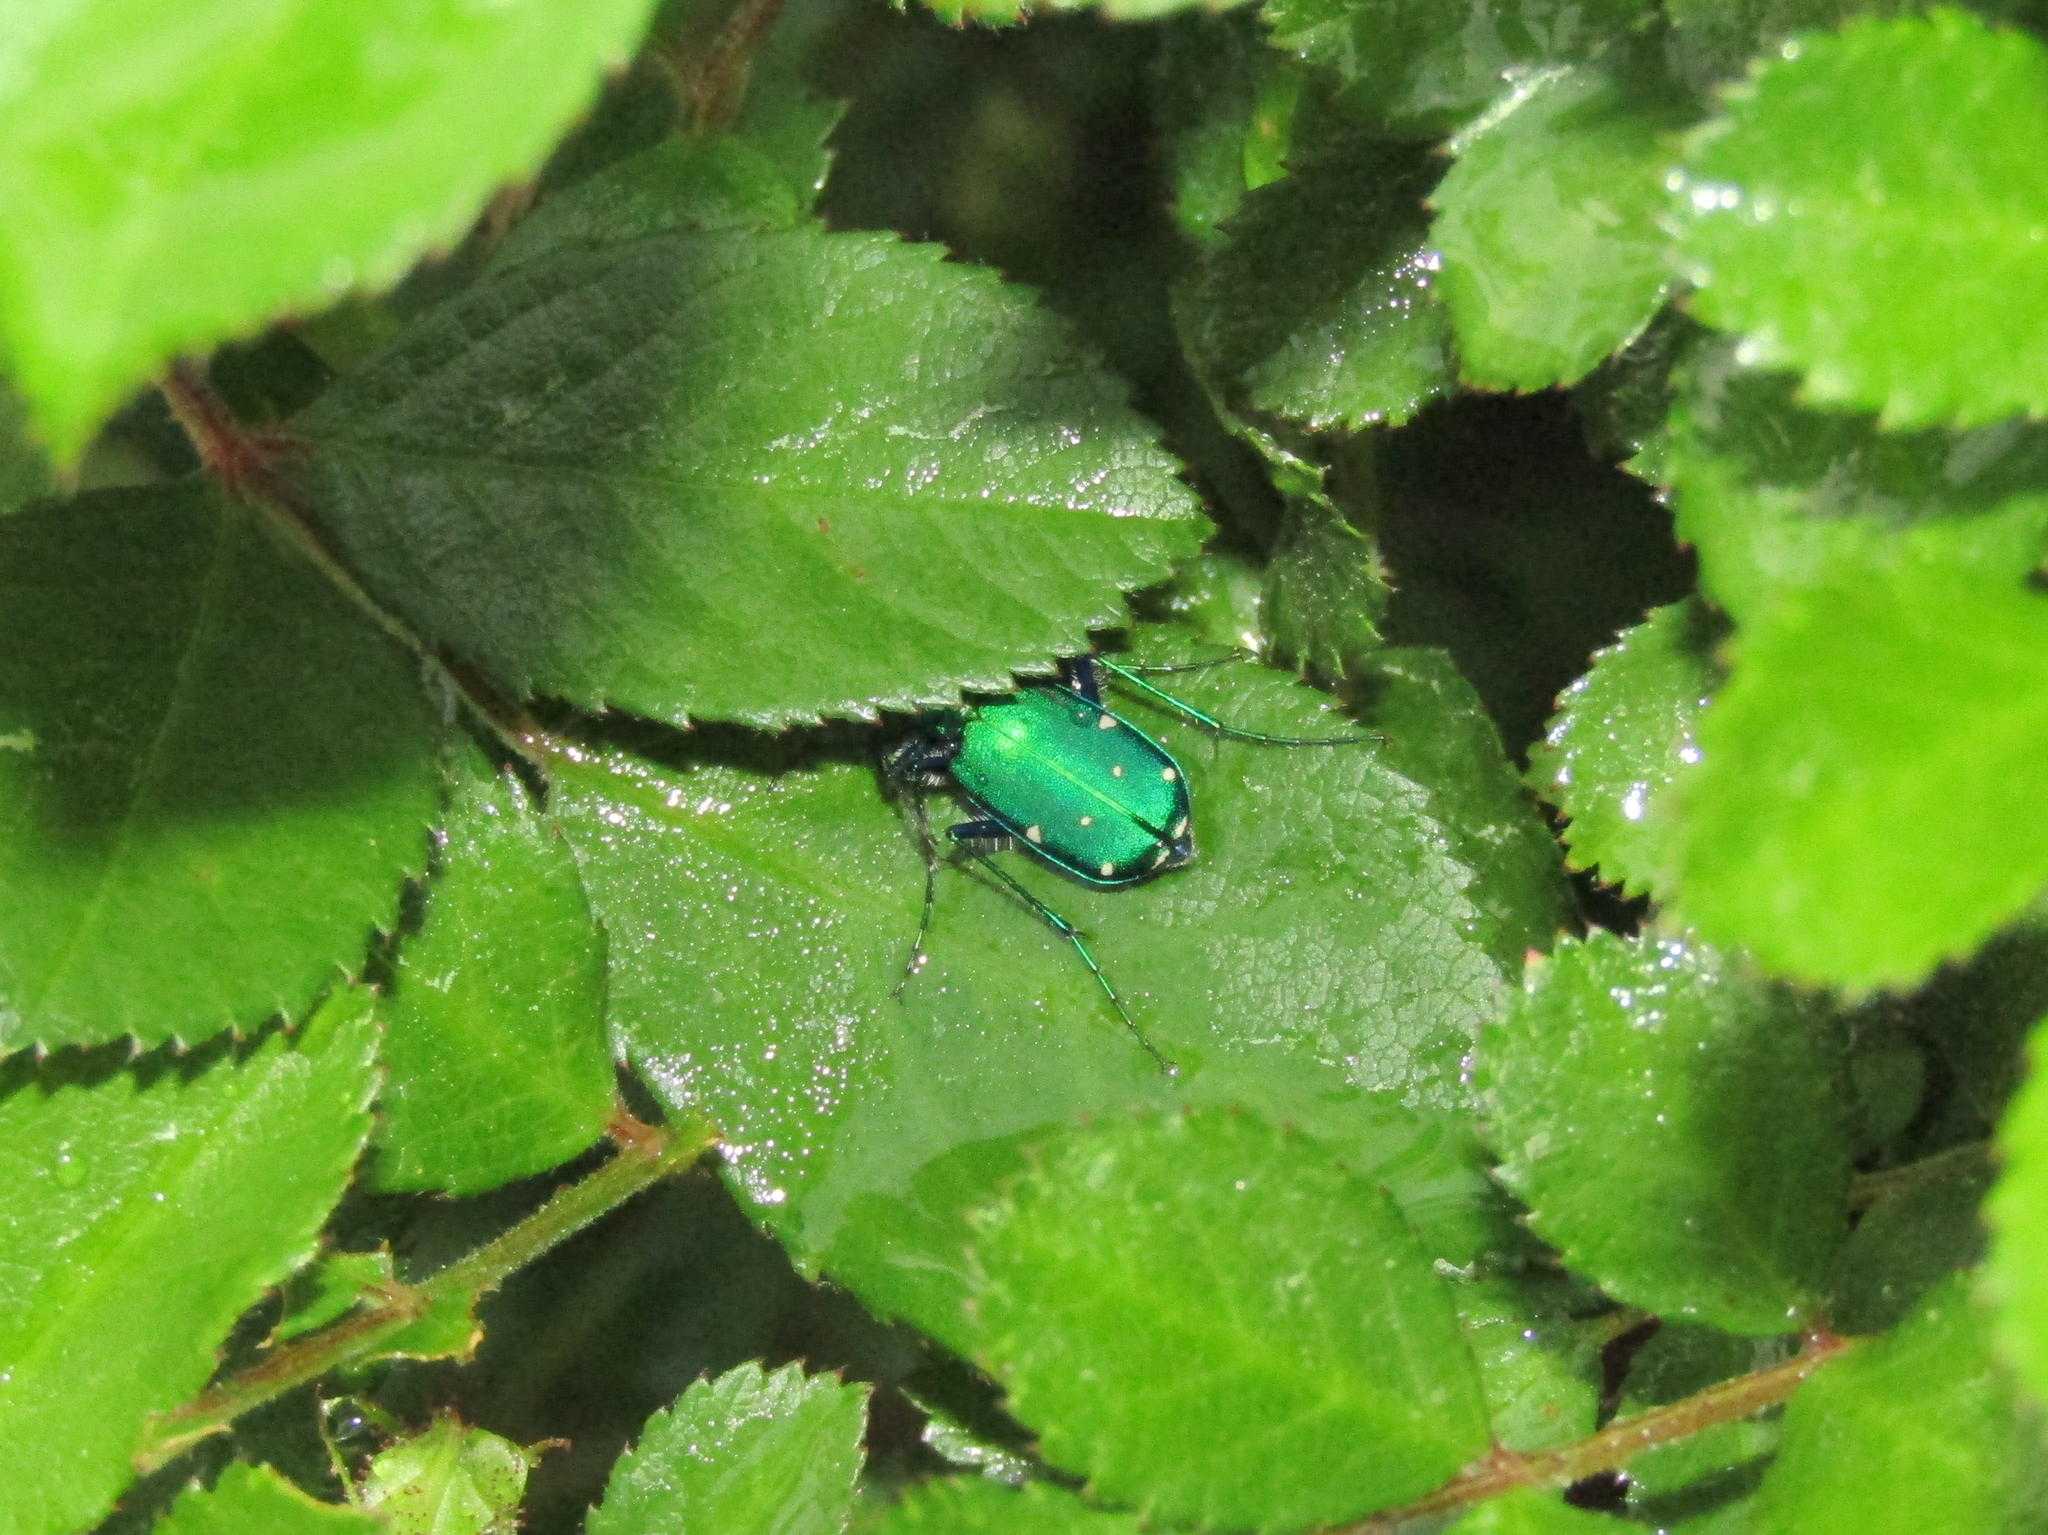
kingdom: Animalia
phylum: Arthropoda
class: Insecta
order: Coleoptera
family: Carabidae
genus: Cicindela
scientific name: Cicindela sexguttata
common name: Six-spotted tiger beetle
